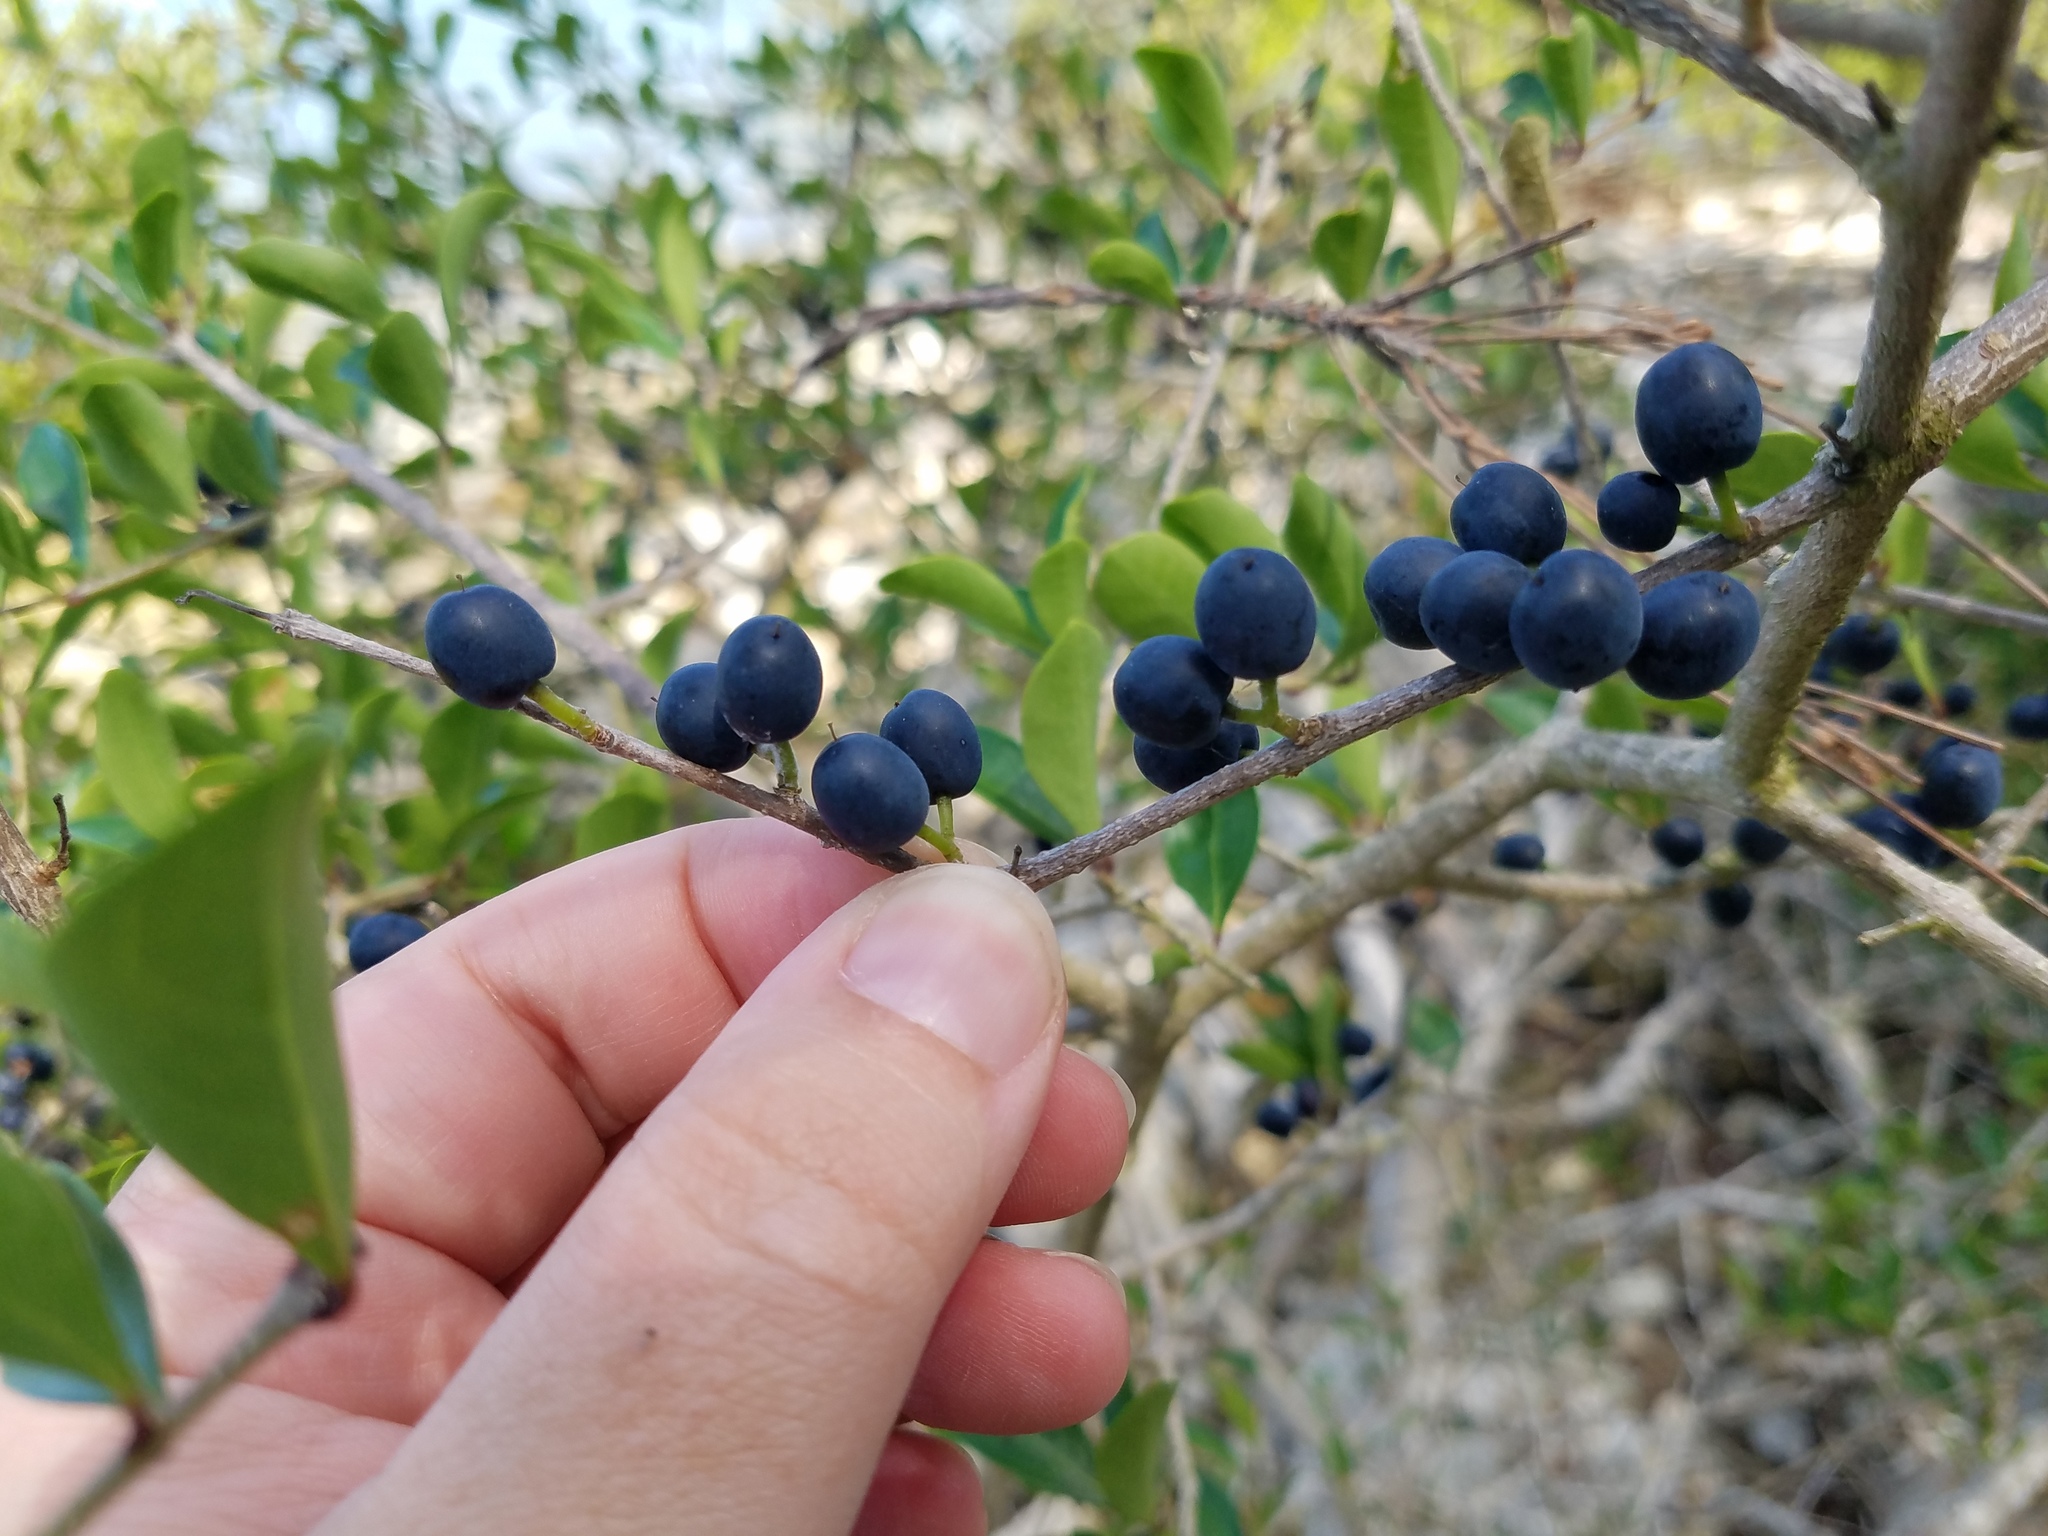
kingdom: Plantae
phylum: Tracheophyta
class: Magnoliopsida
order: Lamiales
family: Oleaceae
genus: Forestiera
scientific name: Forestiera segregata
